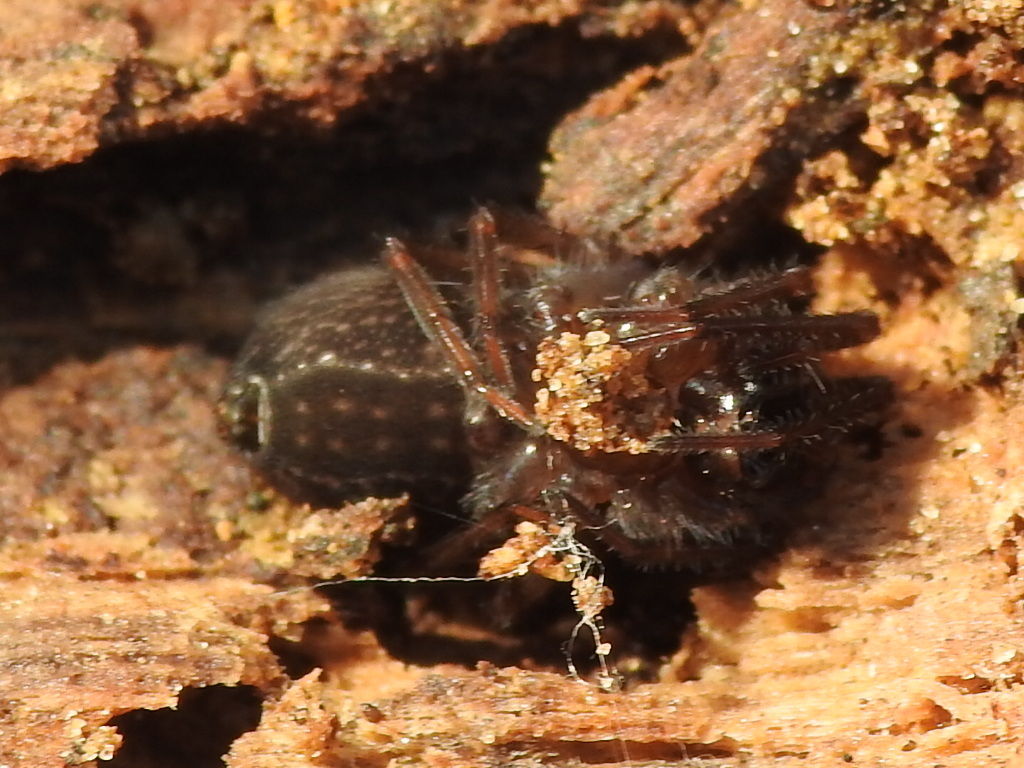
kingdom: Animalia
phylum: Arthropoda
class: Arachnida
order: Araneae
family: Desidae
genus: Metaltella
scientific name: Metaltella simoni
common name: Cribellate spider
